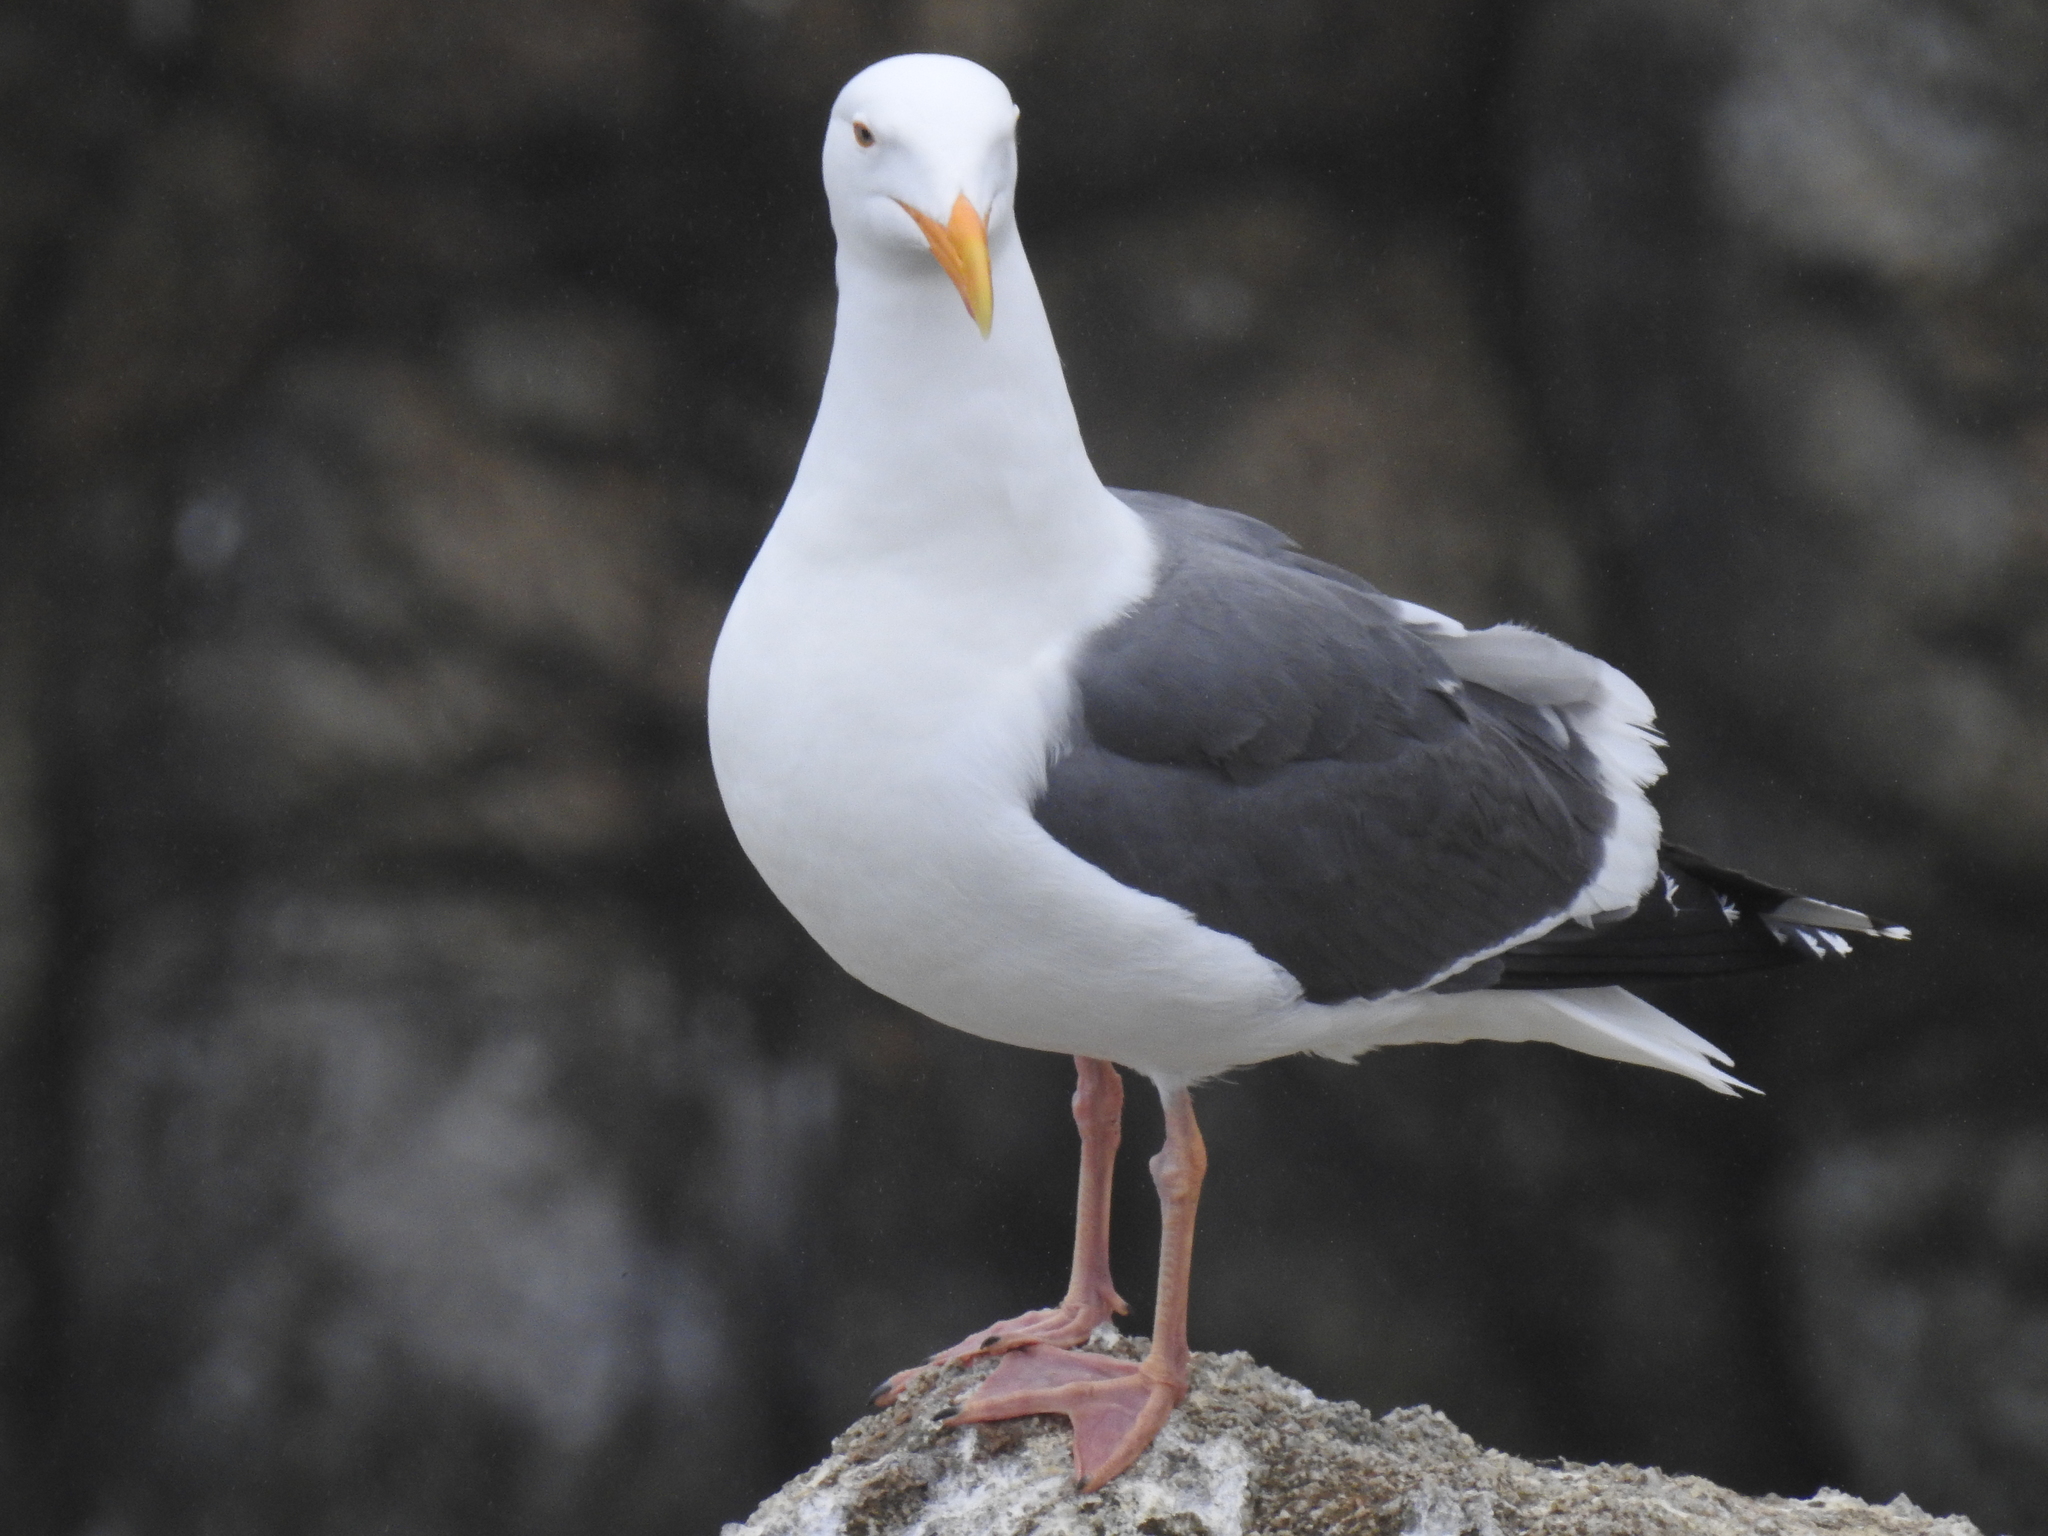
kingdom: Animalia
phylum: Chordata
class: Aves
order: Charadriiformes
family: Laridae
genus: Larus
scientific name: Larus occidentalis
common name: Western gull
